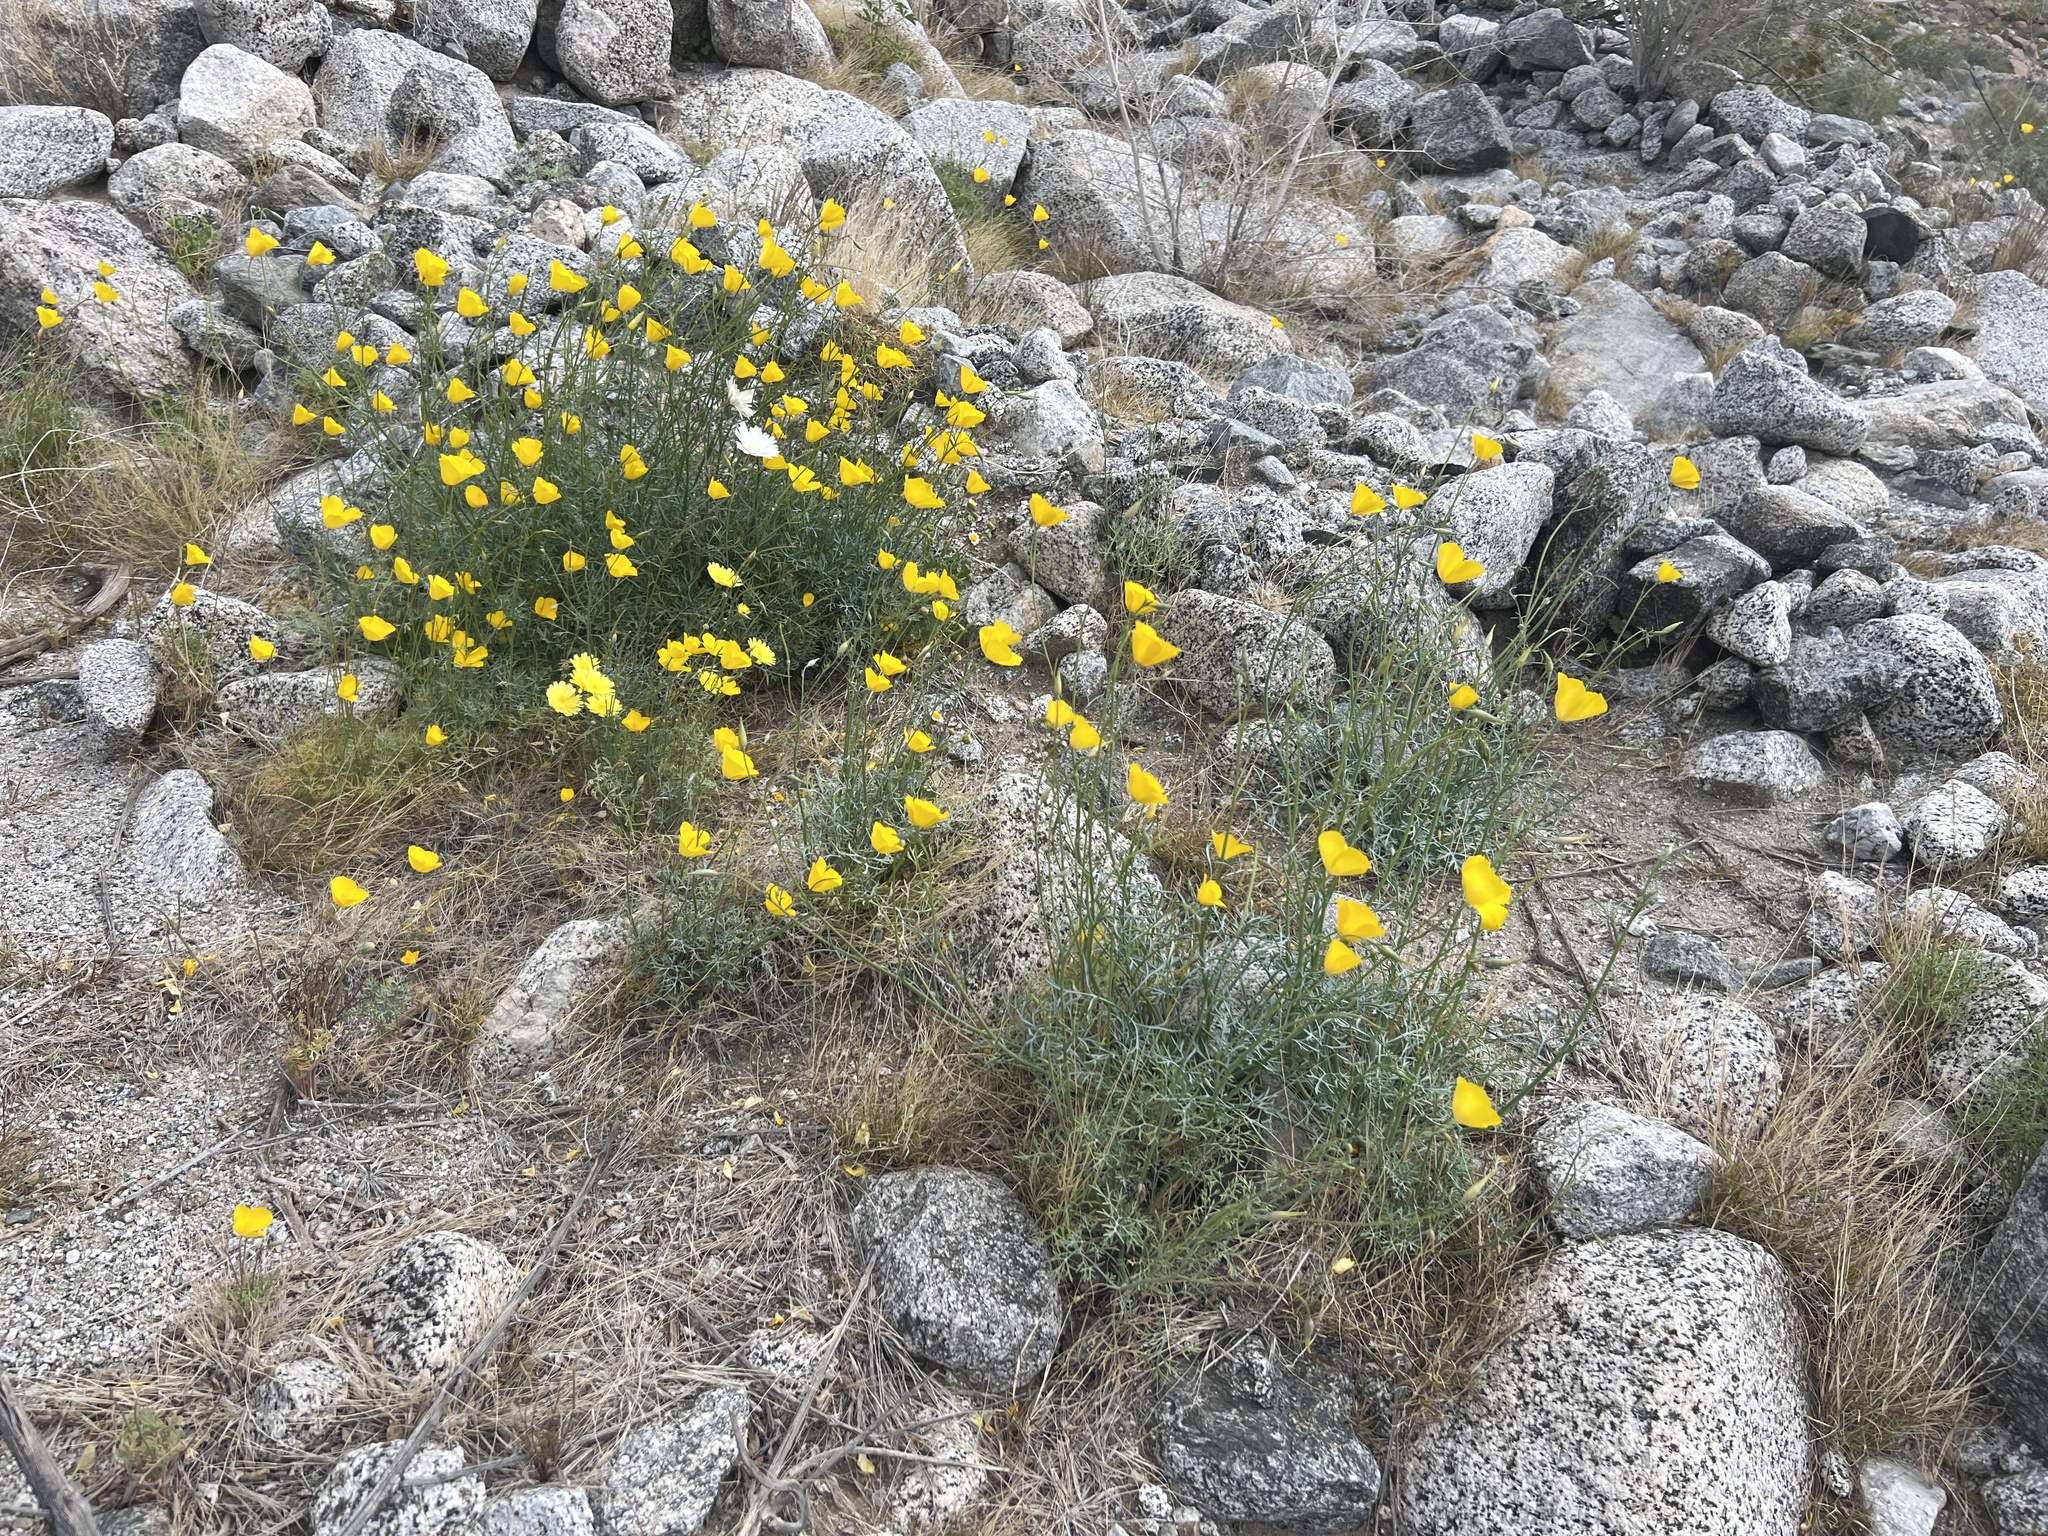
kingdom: Plantae
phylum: Tracheophyta
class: Magnoliopsida
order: Ranunculales
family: Papaveraceae
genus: Eschscholzia
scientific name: Eschscholzia parishii
